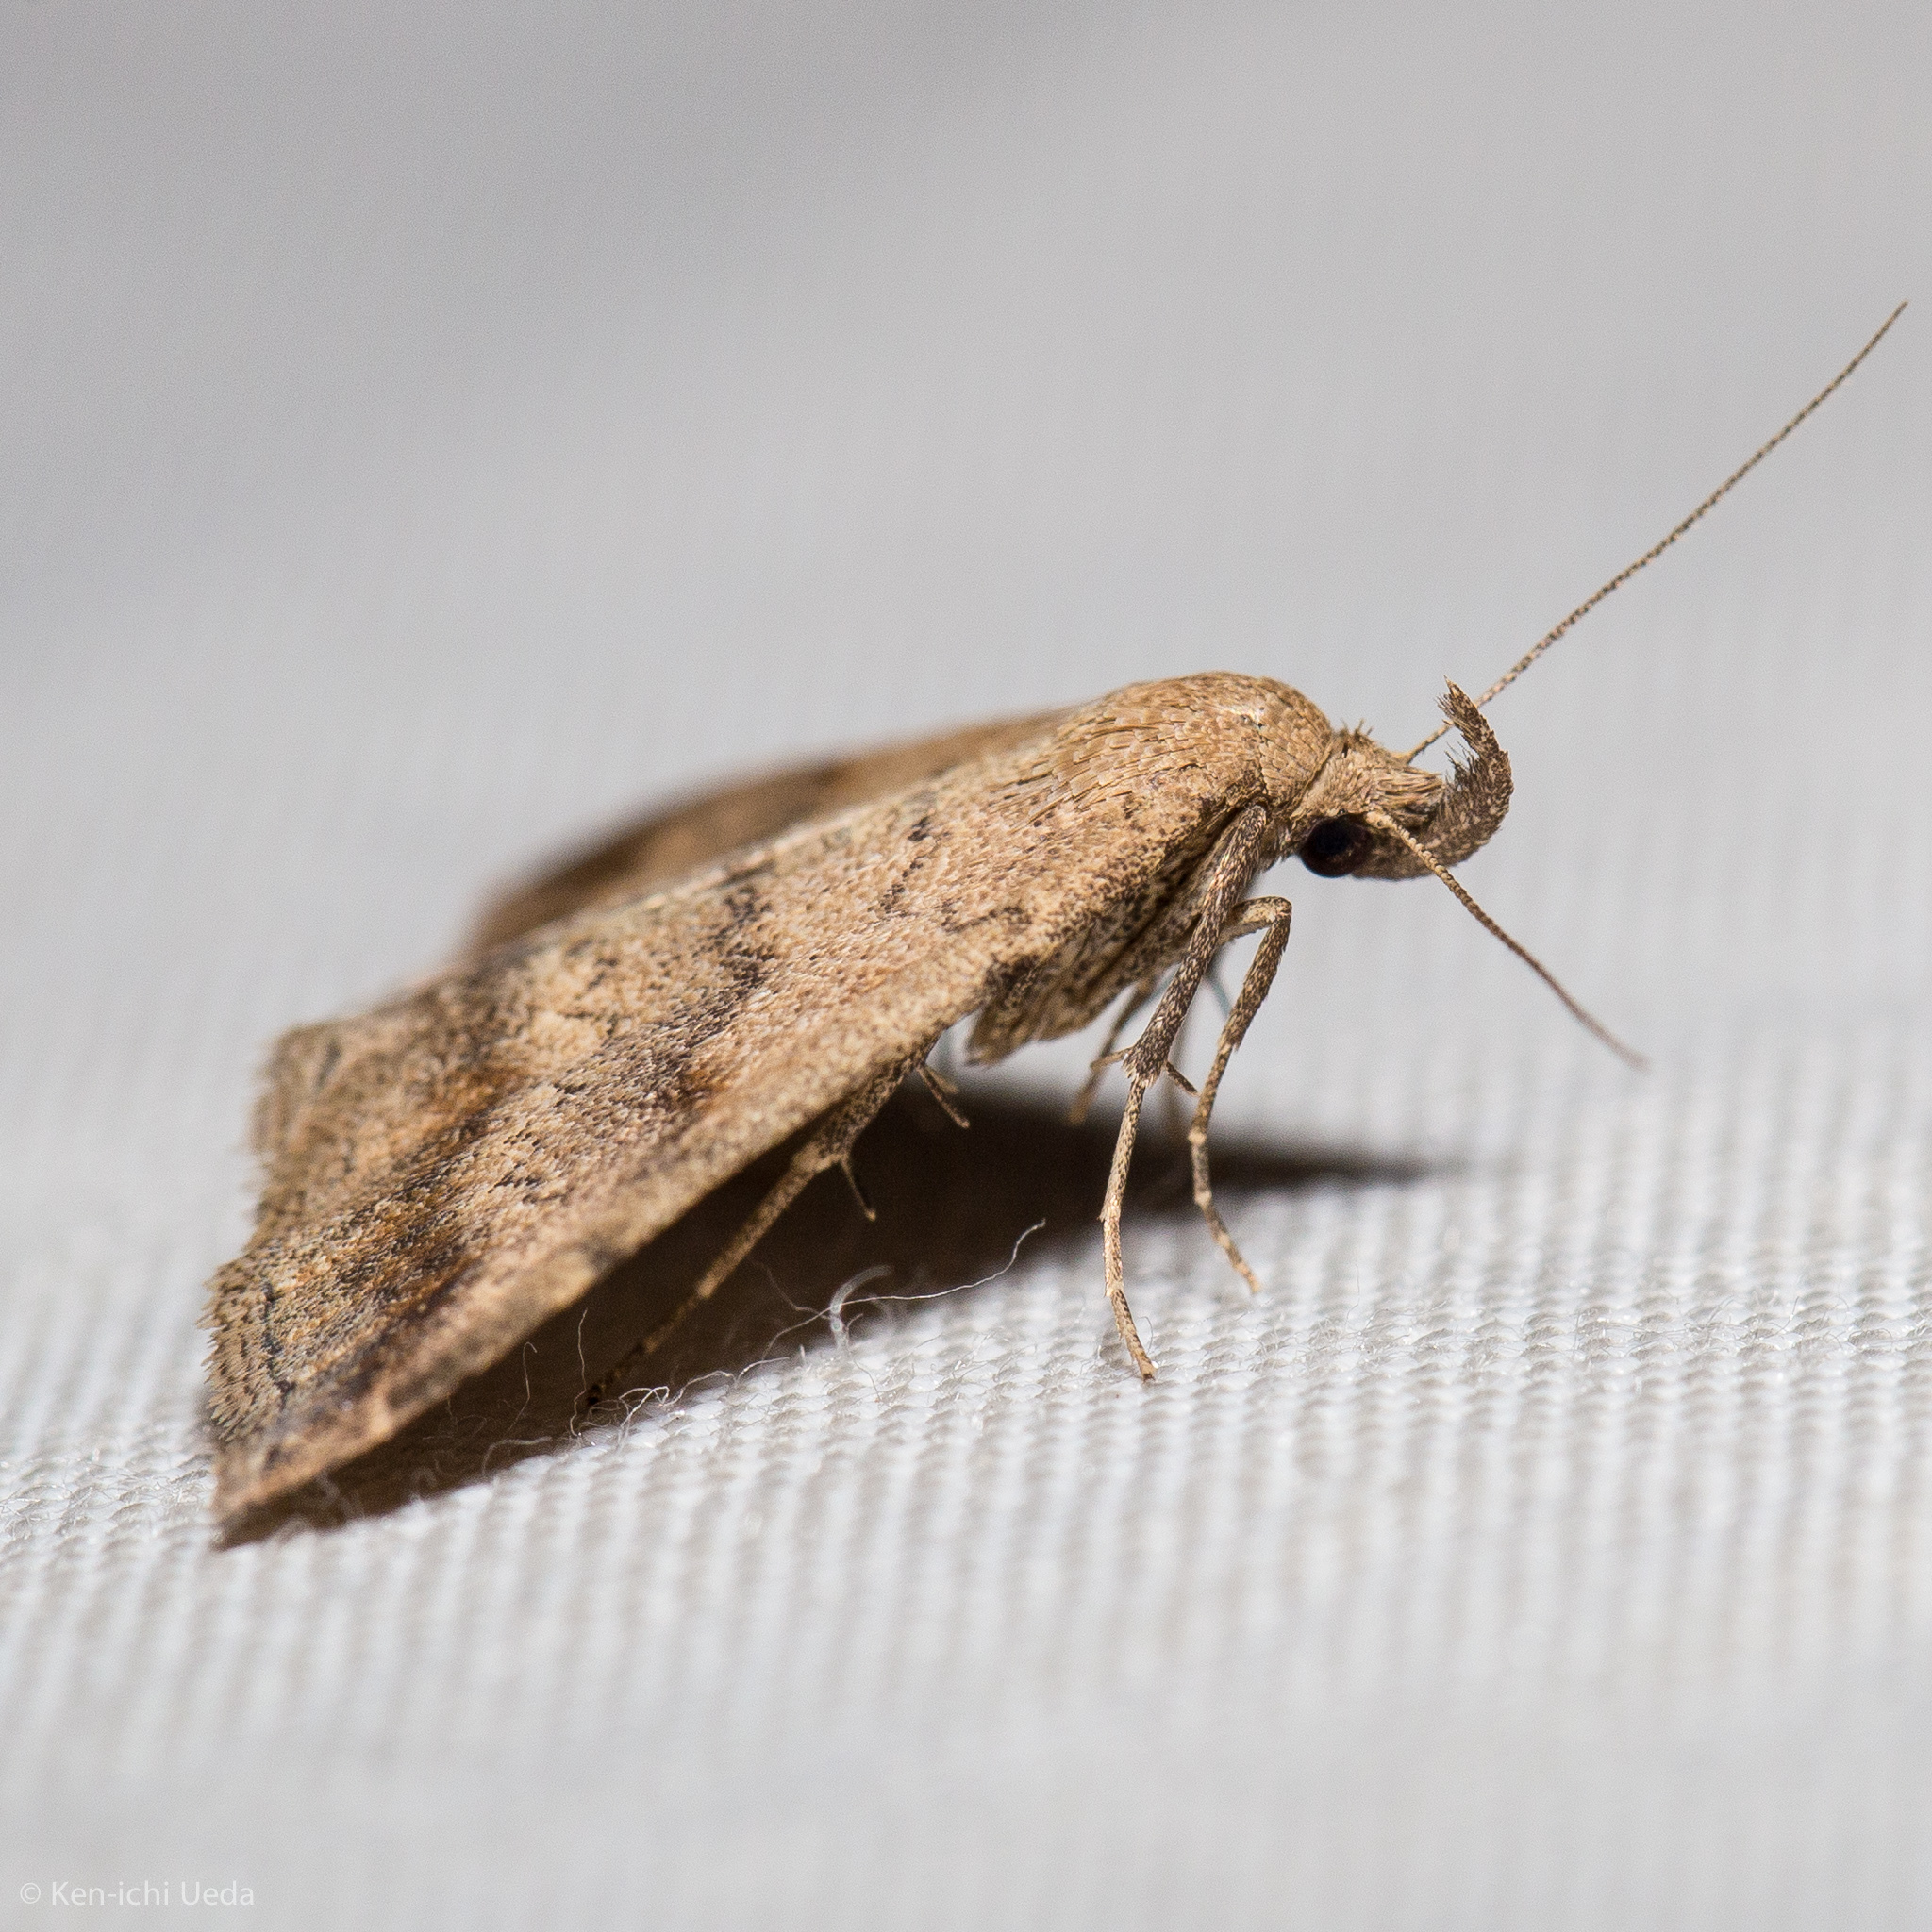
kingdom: Animalia
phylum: Arthropoda
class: Insecta
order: Lepidoptera
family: Erebidae
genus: Tetanolita
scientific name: Tetanolita palligera
